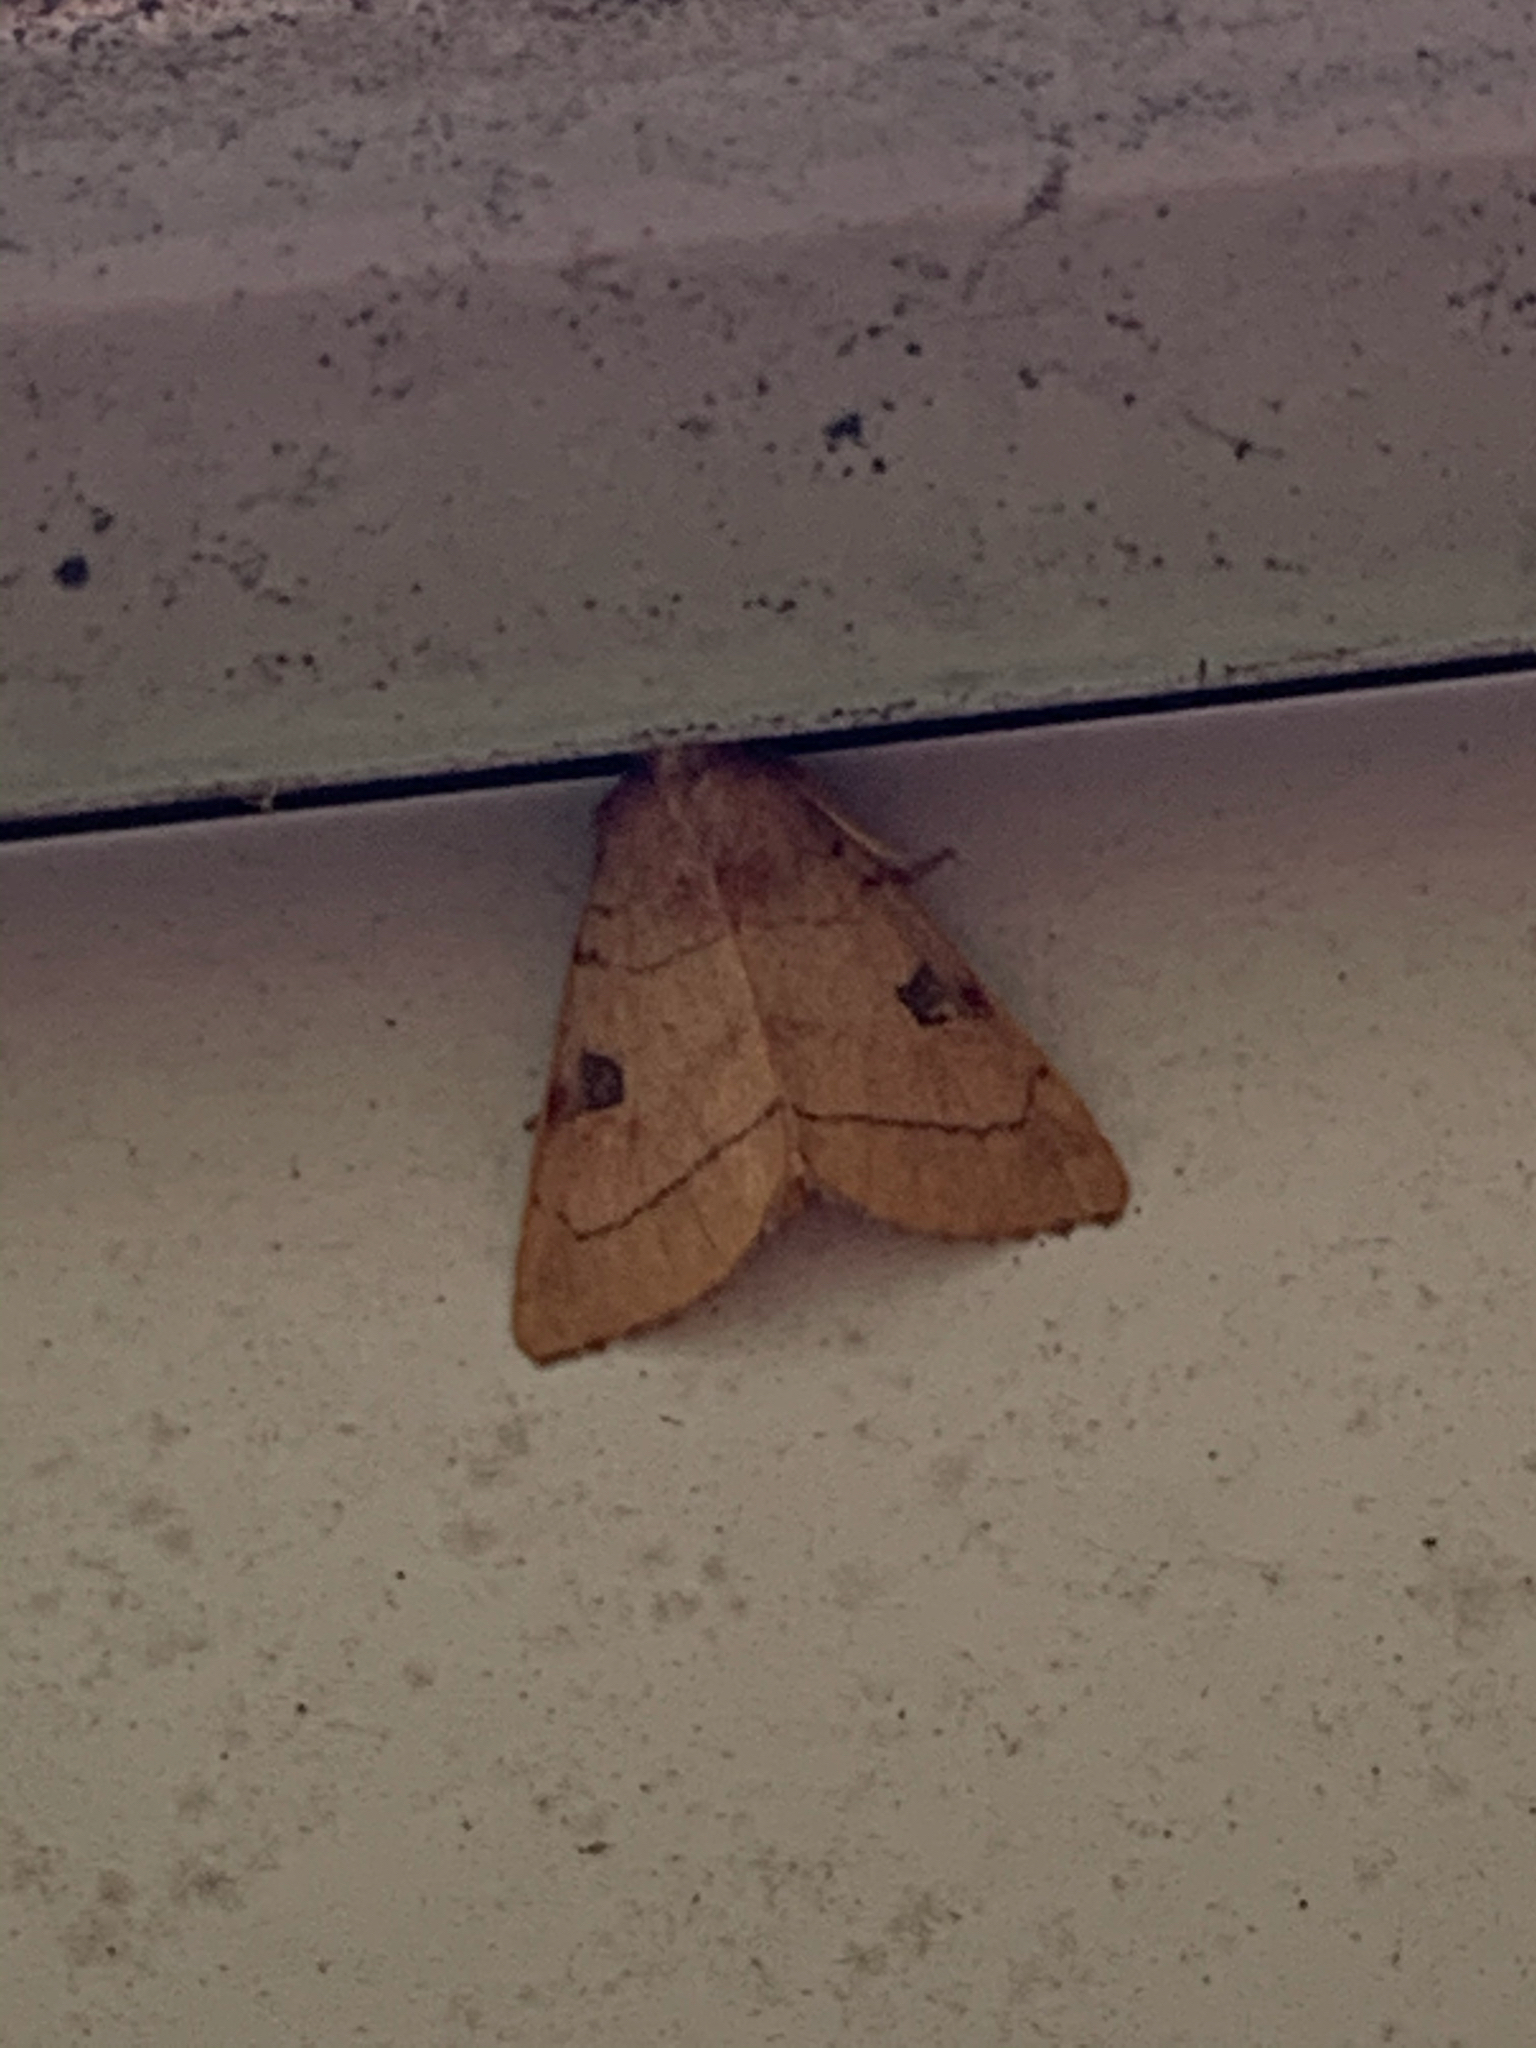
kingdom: Animalia
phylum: Arthropoda
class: Insecta
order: Lepidoptera
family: Noctuidae
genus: Choephora
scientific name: Choephora fungorum
